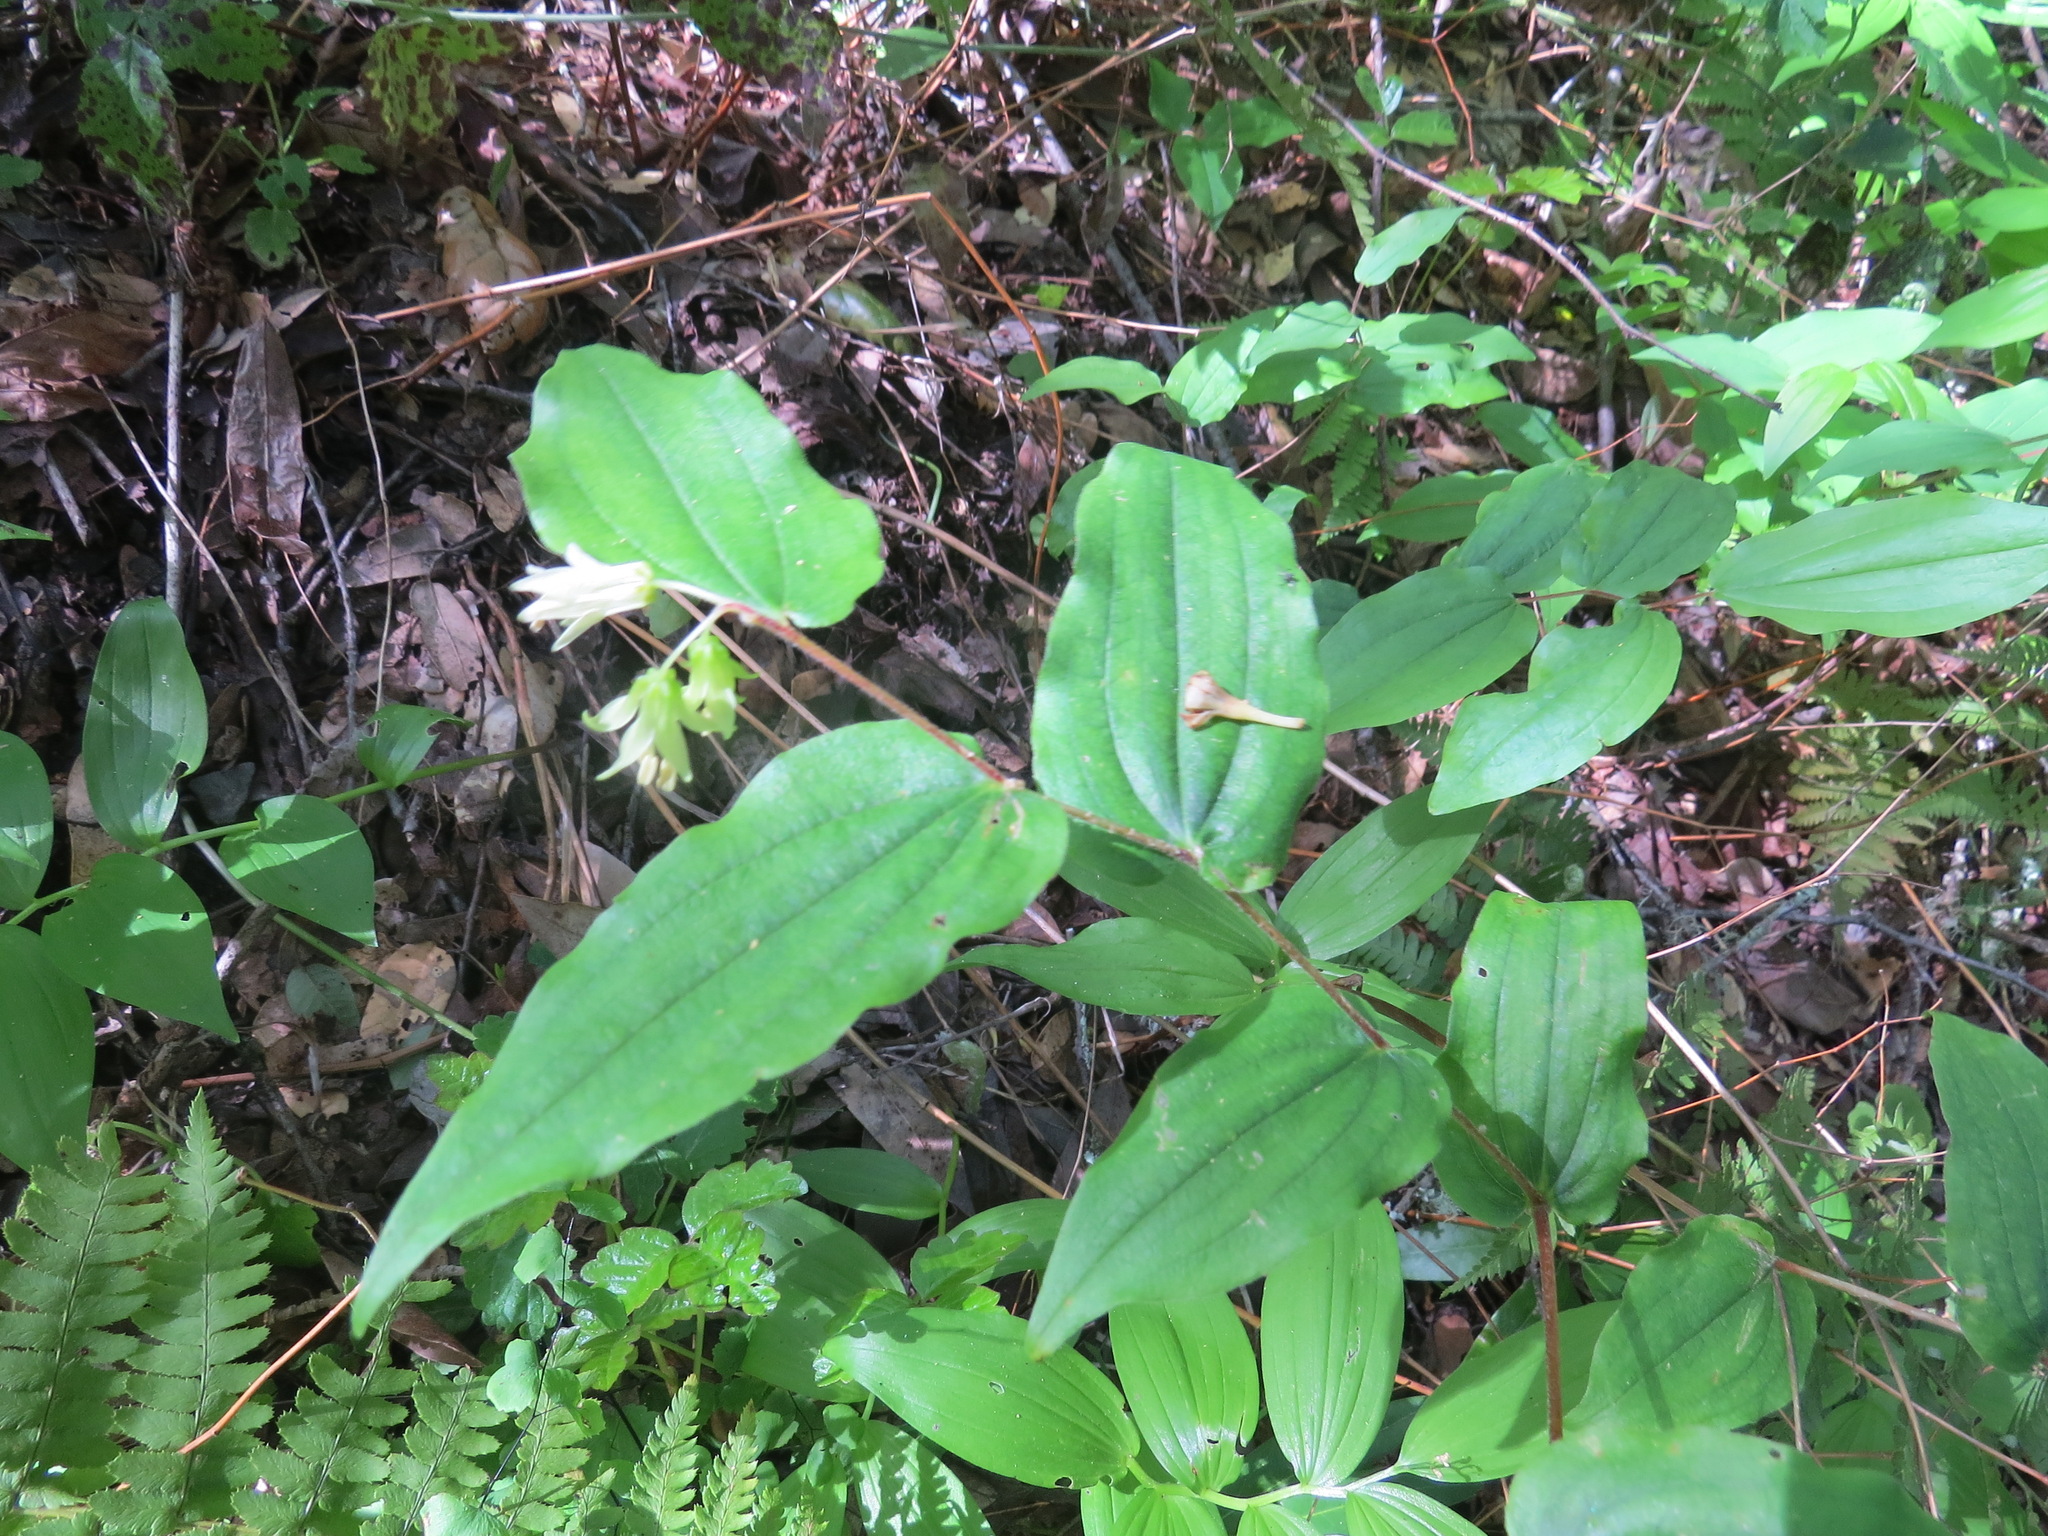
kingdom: Plantae
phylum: Tracheophyta
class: Liliopsida
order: Liliales
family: Liliaceae
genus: Prosartes
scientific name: Prosartes hookeri
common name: Fairy-bells
